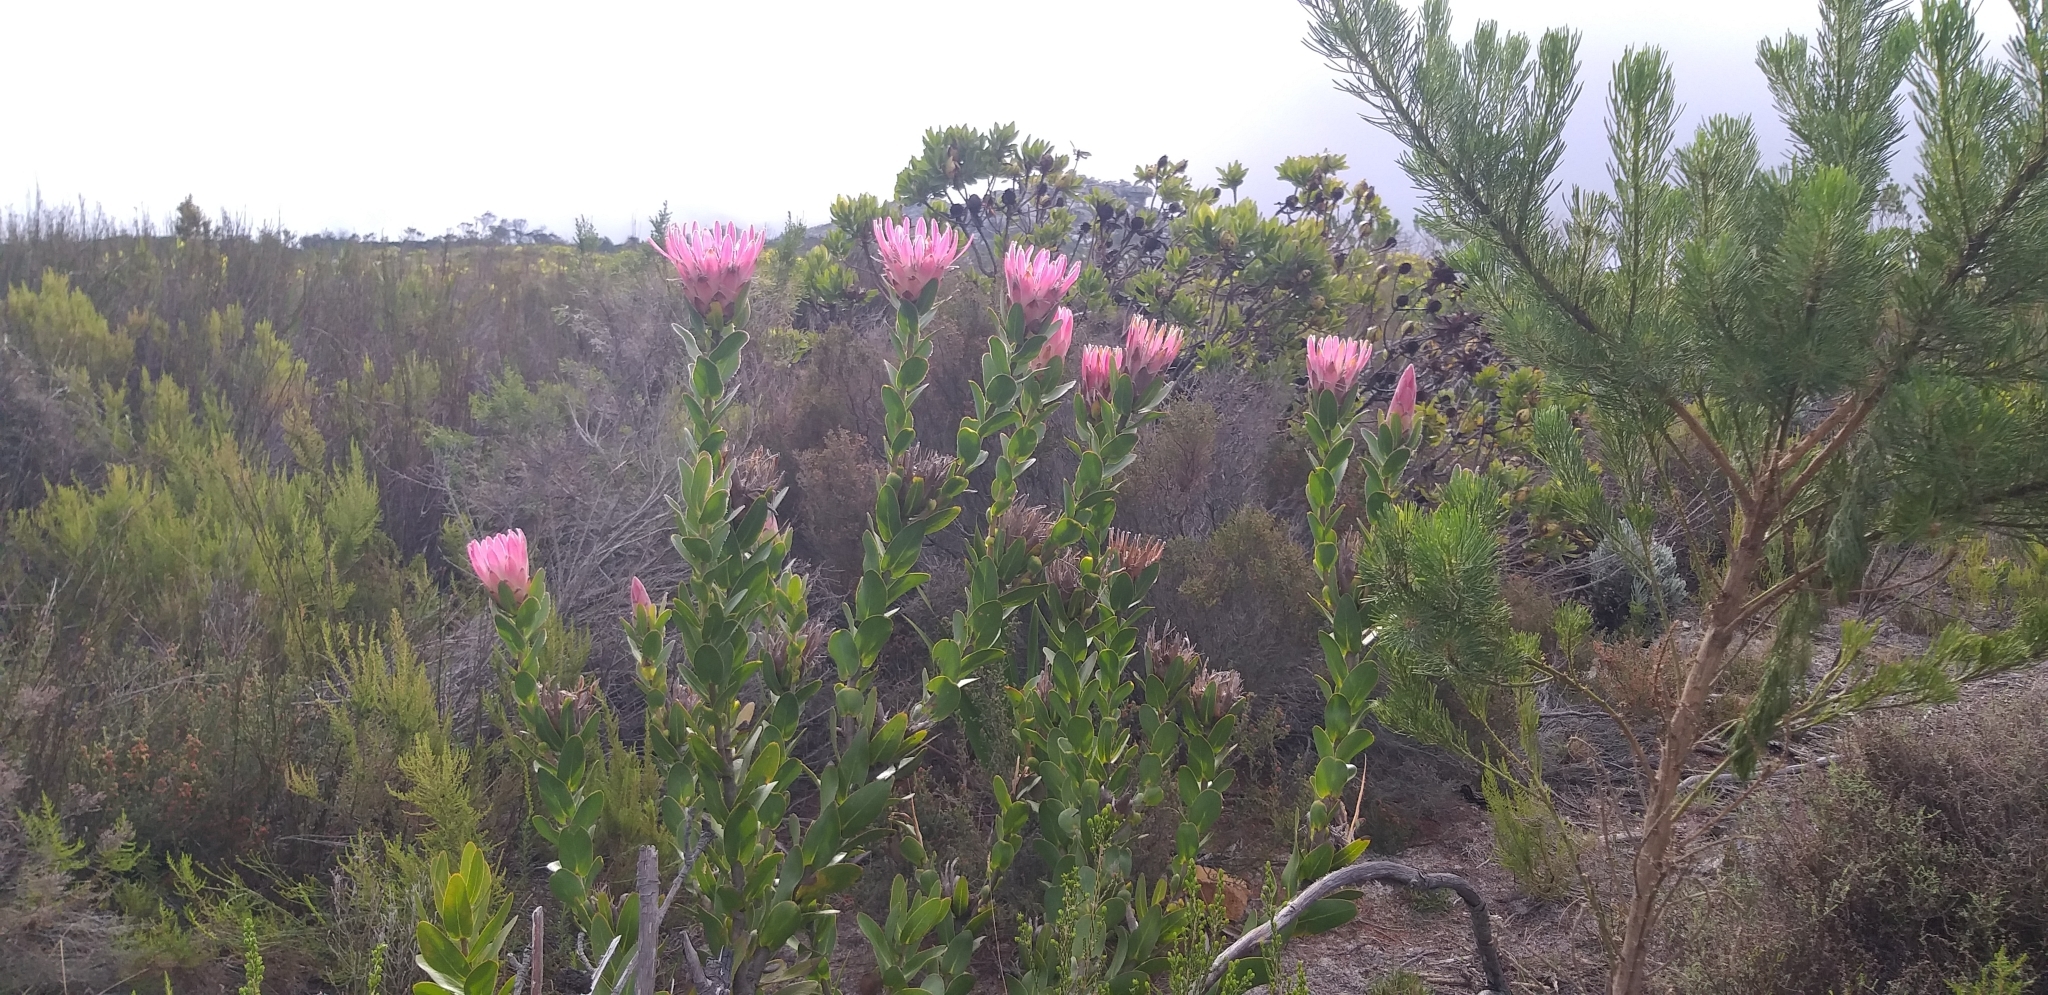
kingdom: Plantae
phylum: Tracheophyta
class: Magnoliopsida
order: Proteales
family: Proteaceae
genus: Protea
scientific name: Protea compacta
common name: Bot river protea
